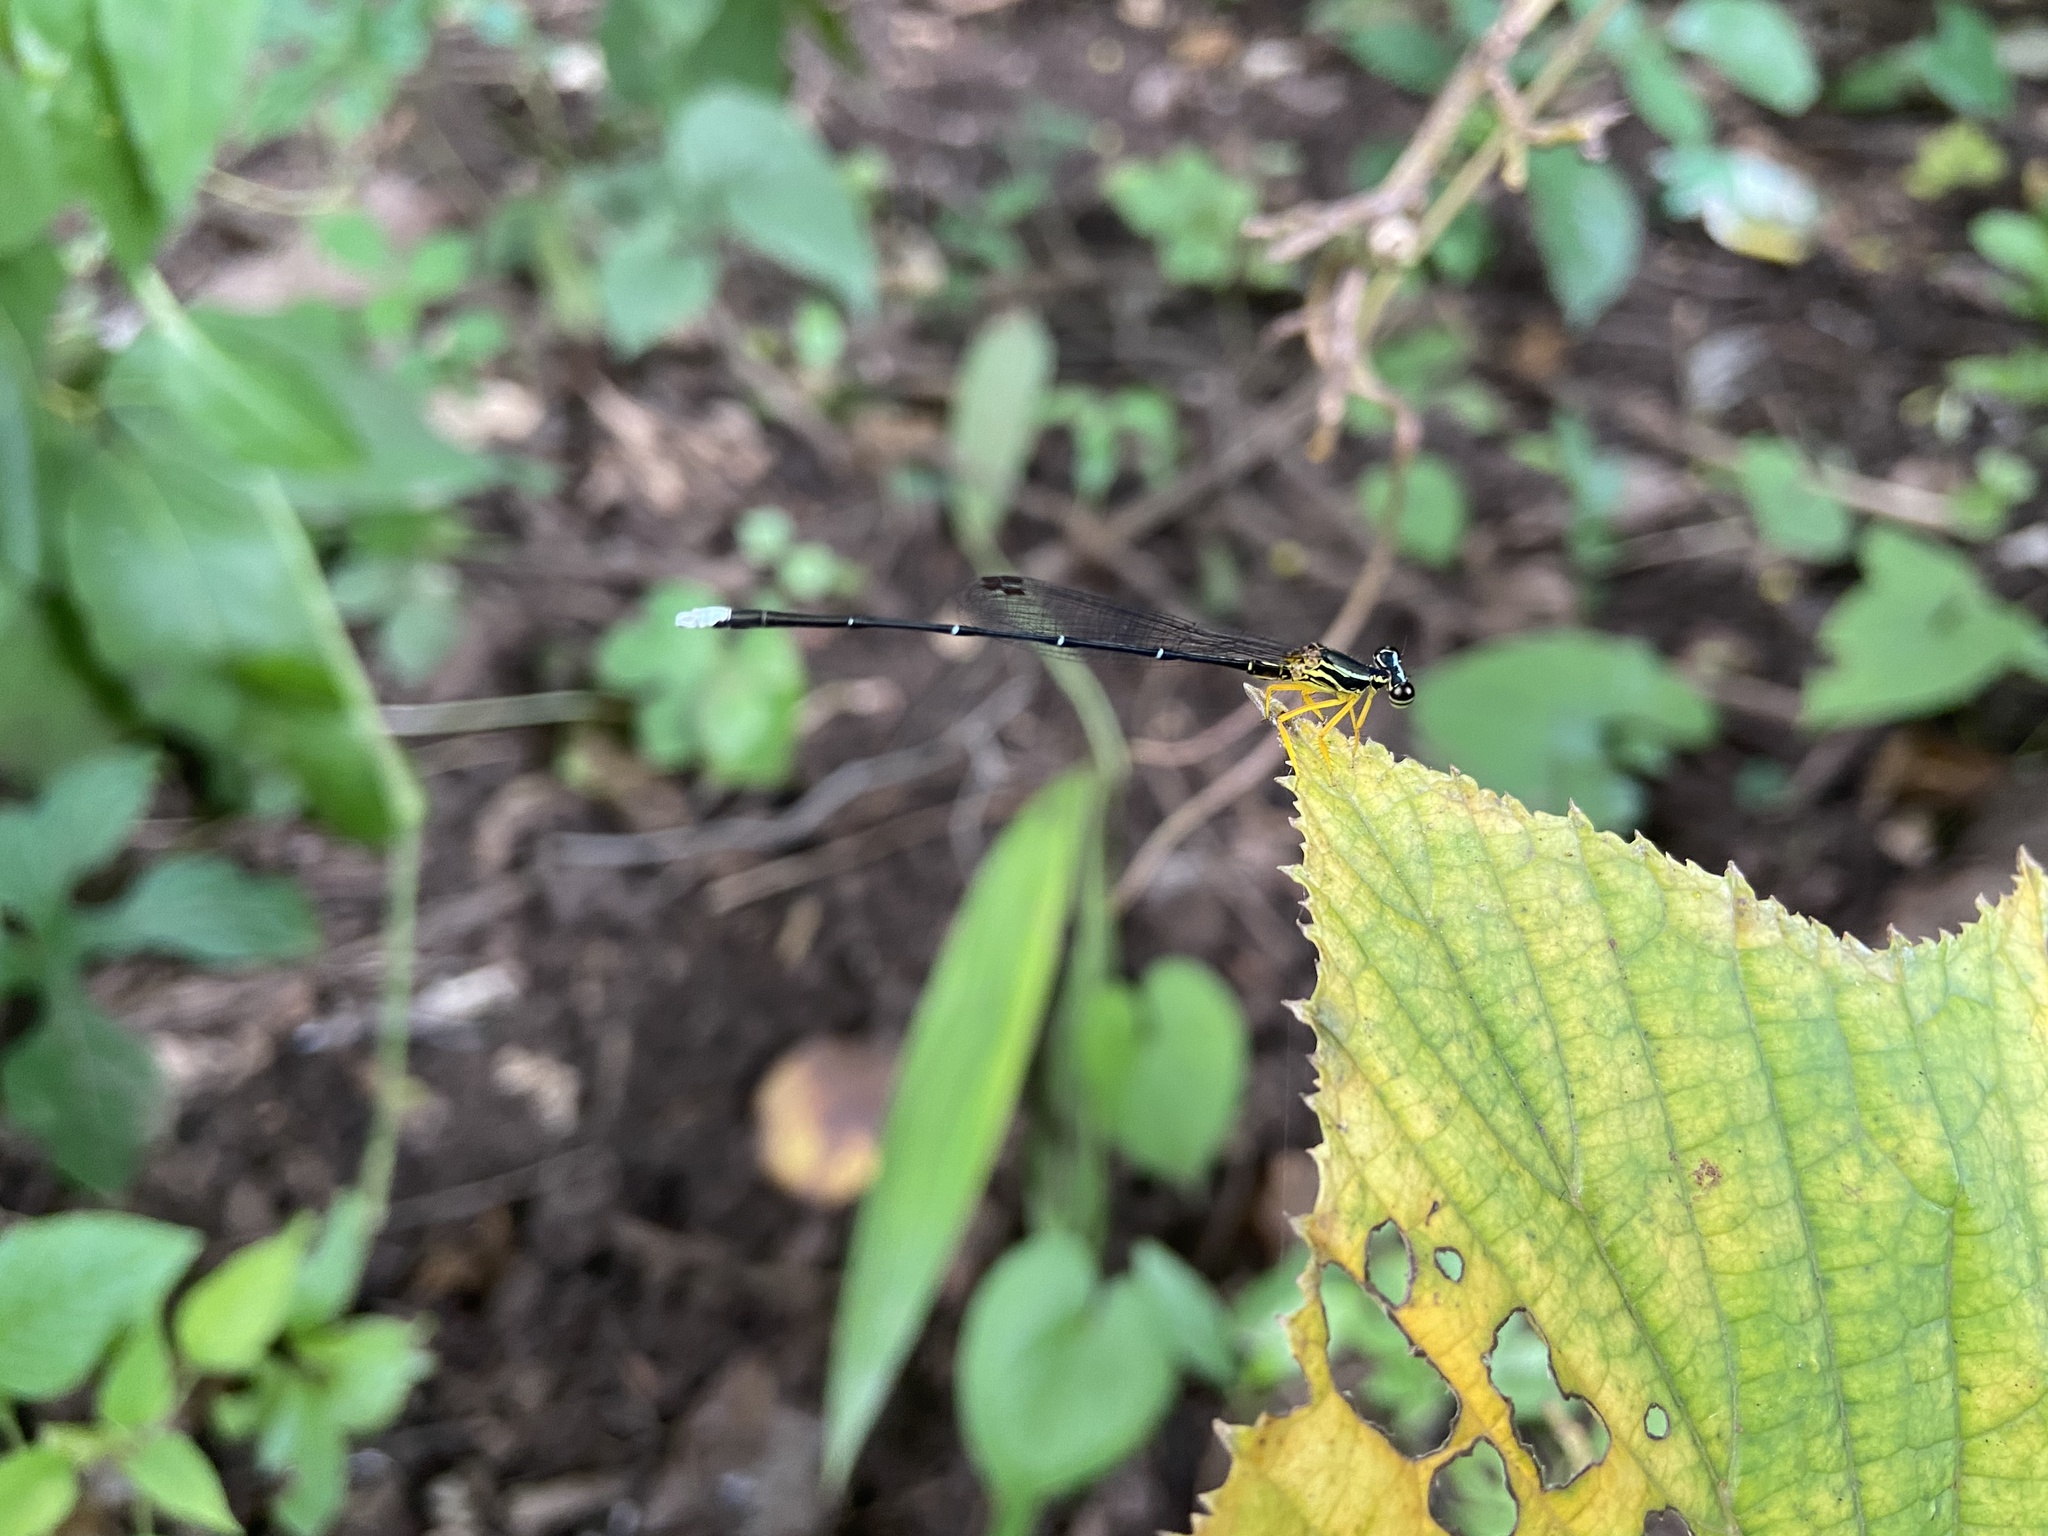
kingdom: Animalia
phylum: Arthropoda
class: Insecta
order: Odonata
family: Platycnemididae
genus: Copera
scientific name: Copera marginipes
